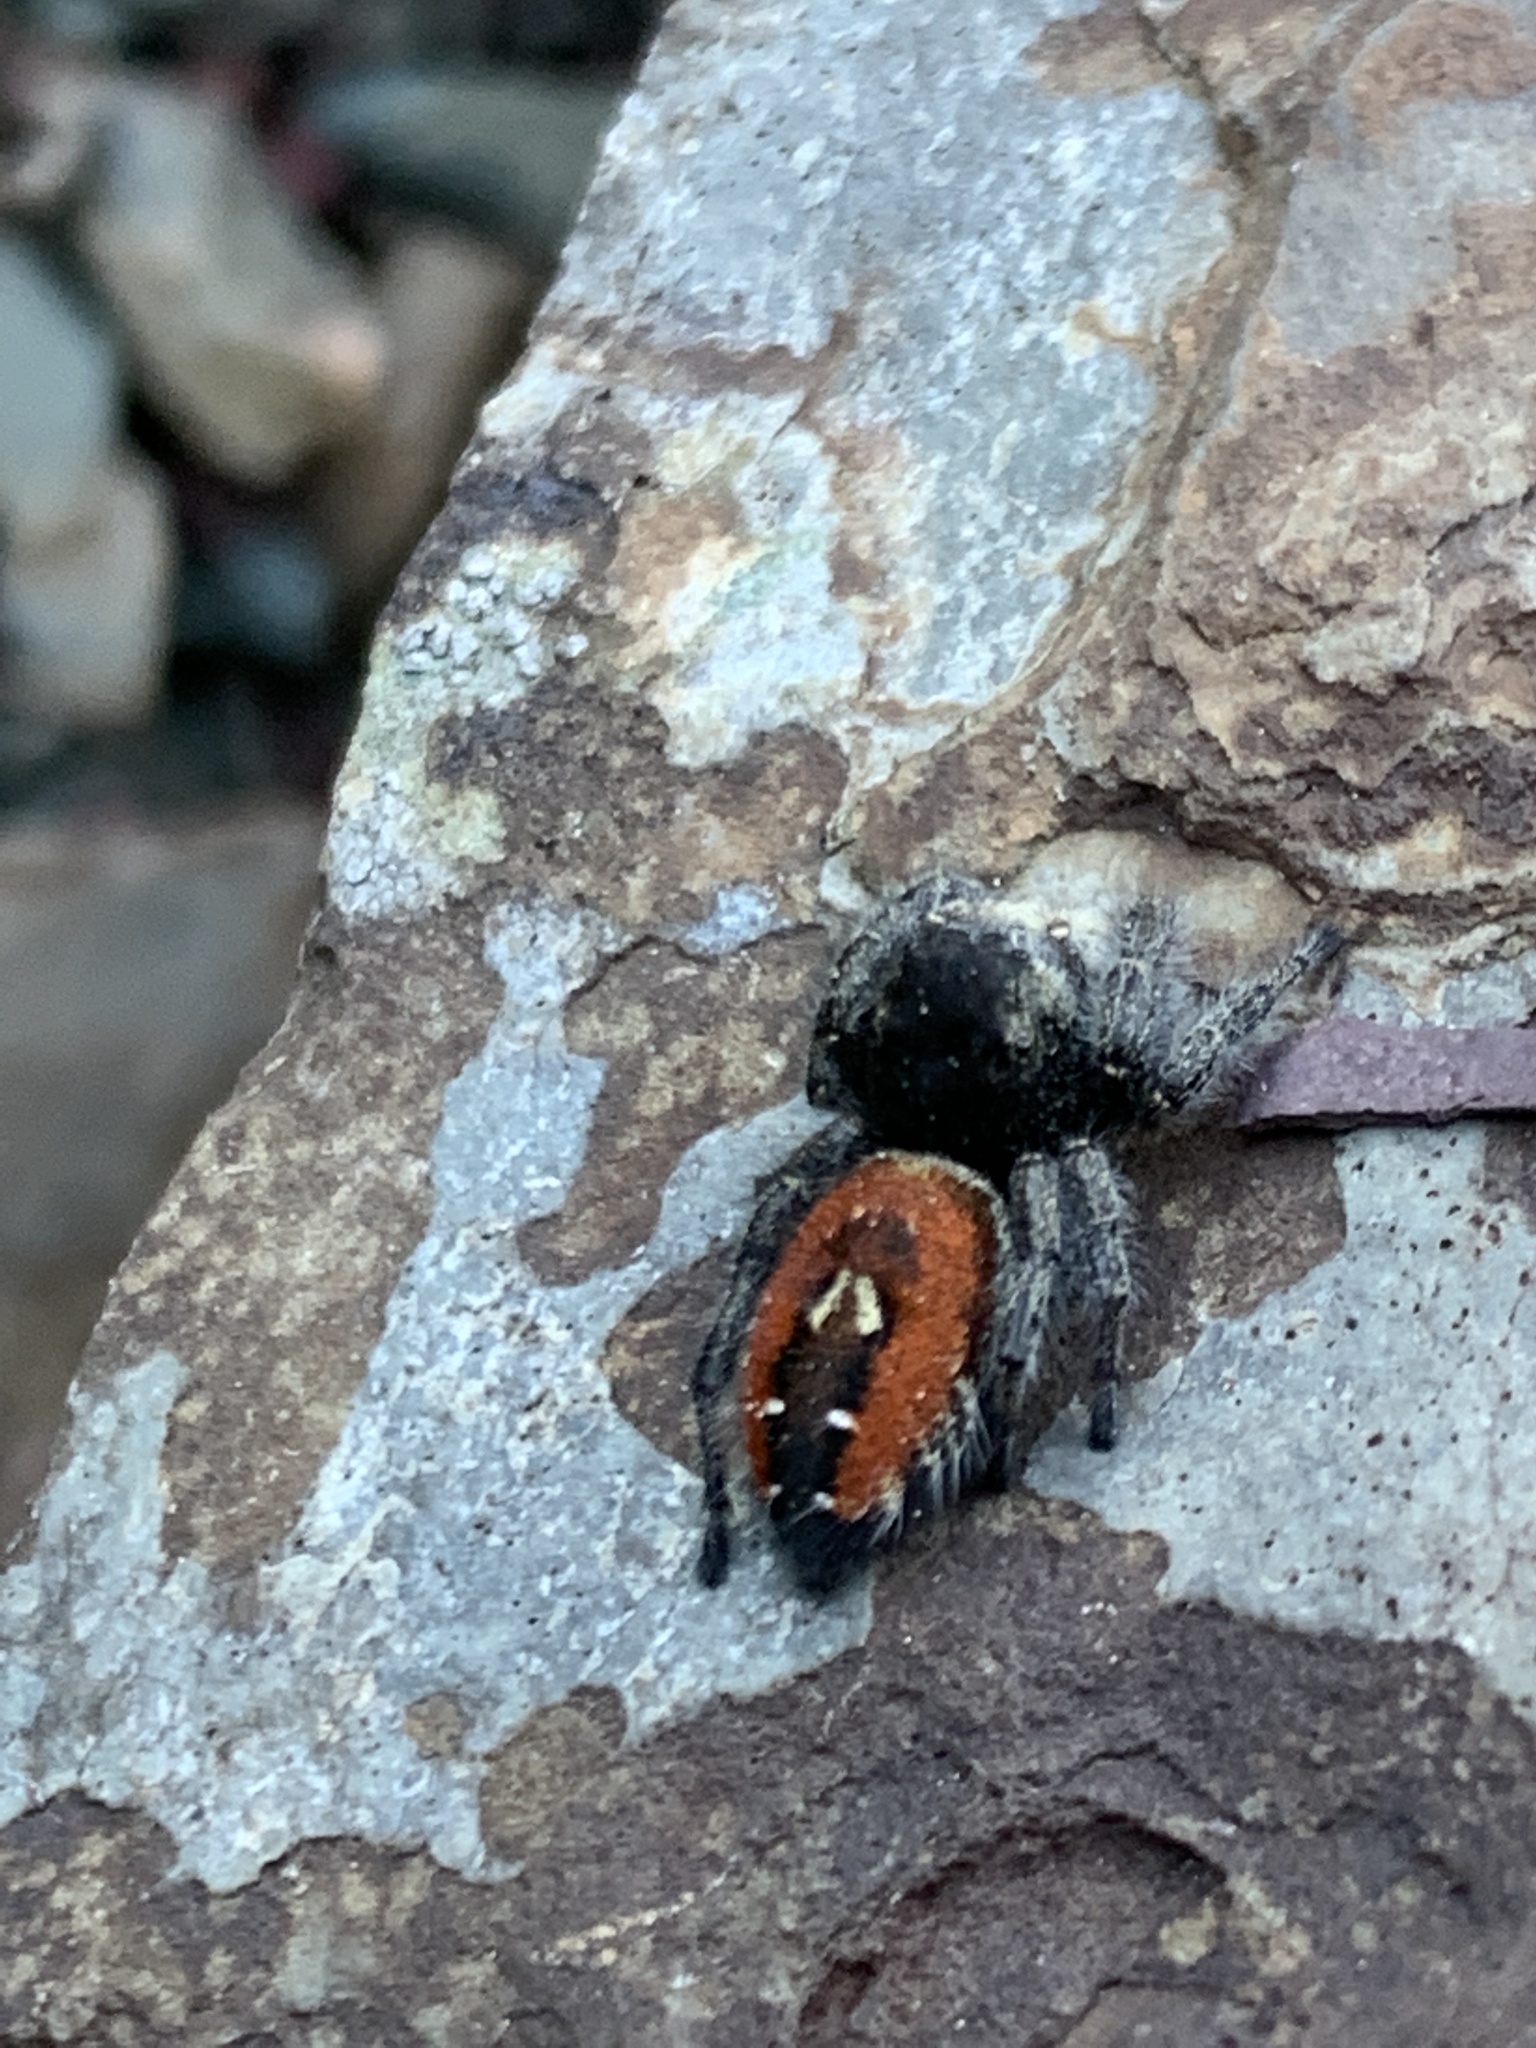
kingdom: Animalia
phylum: Arthropoda
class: Arachnida
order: Araneae
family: Salticidae
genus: Phidippus
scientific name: Phidippus johnsoni
